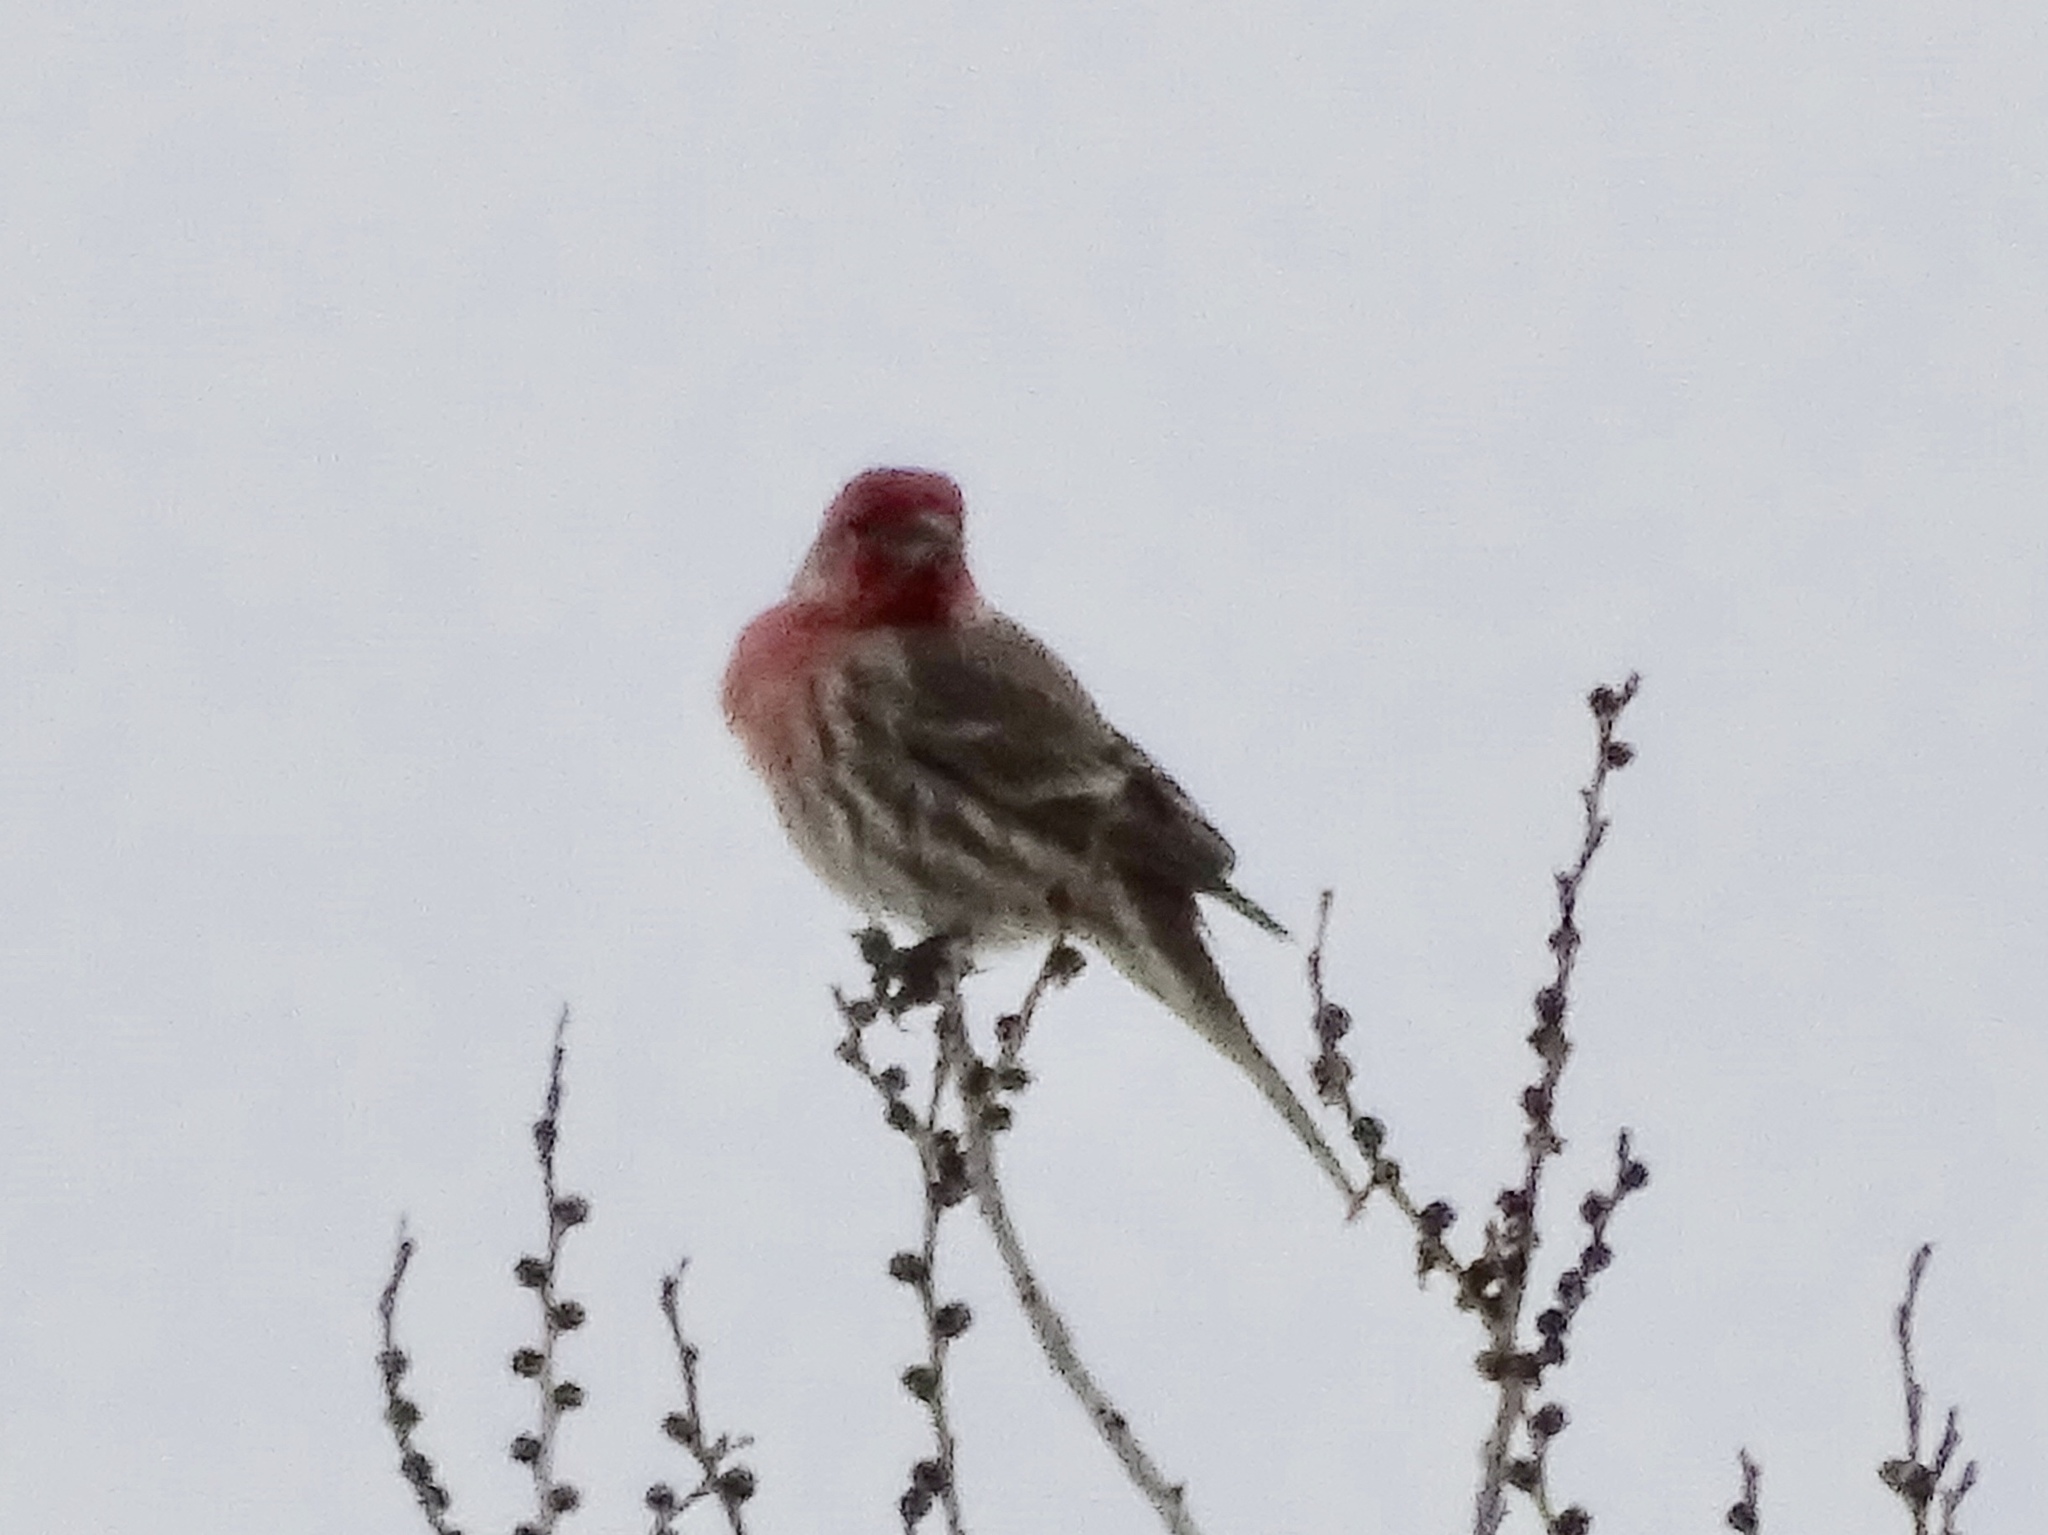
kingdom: Animalia
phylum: Chordata
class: Aves
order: Passeriformes
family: Fringillidae
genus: Haemorhous
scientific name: Haemorhous mexicanus
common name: House finch
